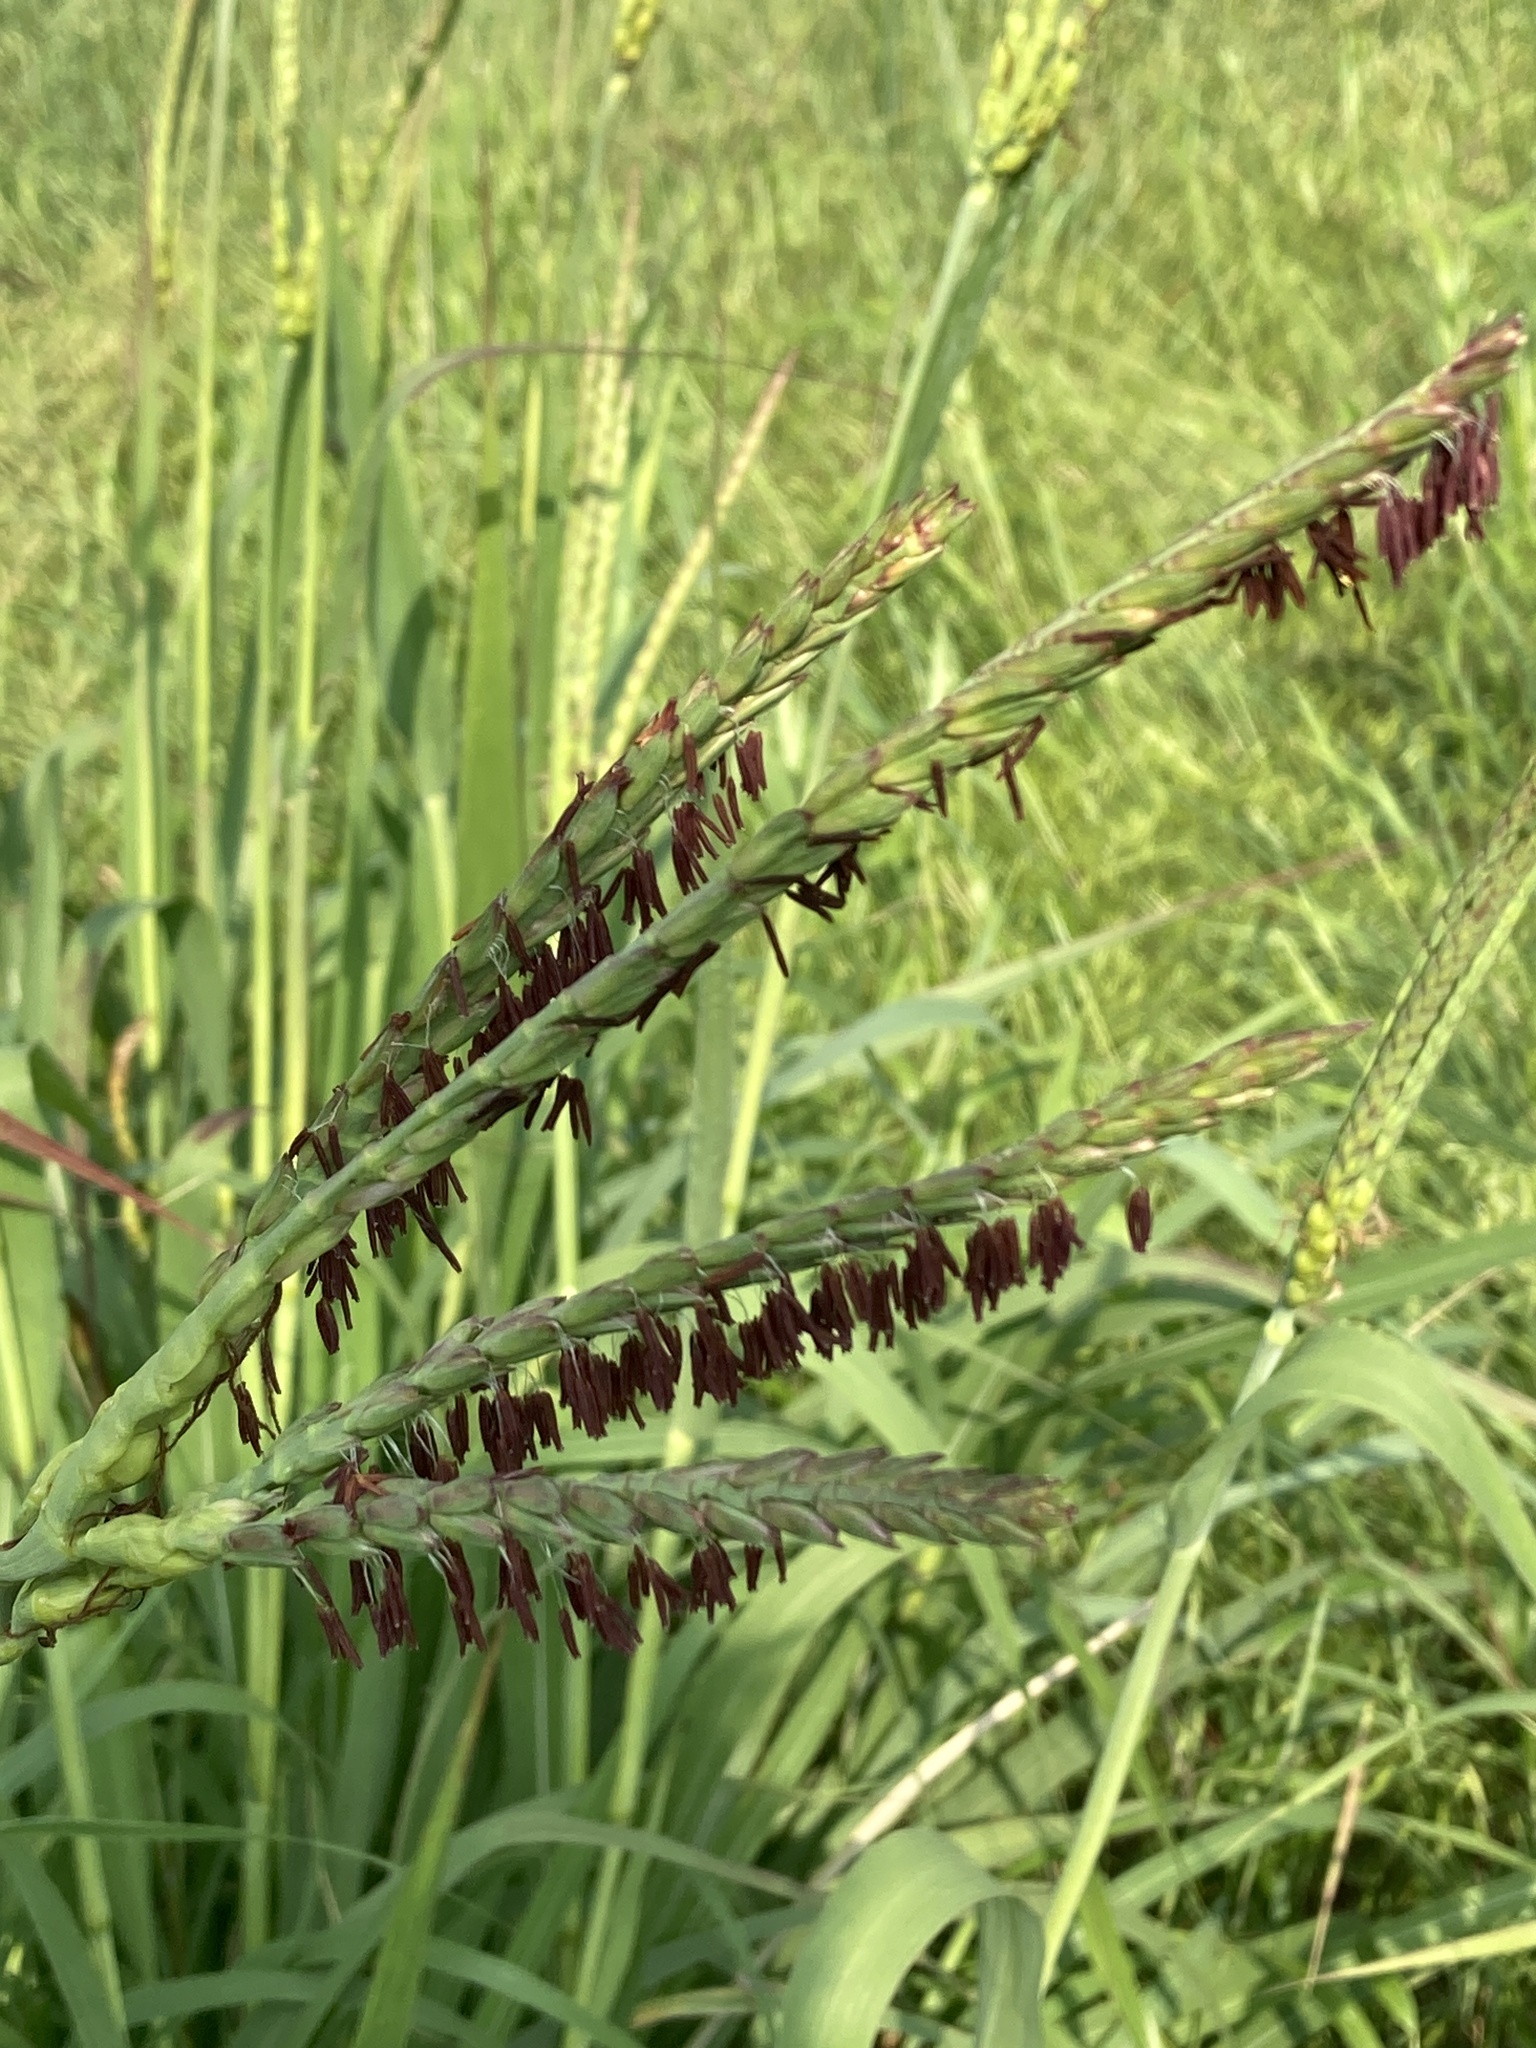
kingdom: Plantae
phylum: Tracheophyta
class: Liliopsida
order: Poales
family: Poaceae
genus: Tripsacum
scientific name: Tripsacum dactyloides
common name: Buffalo-grass
